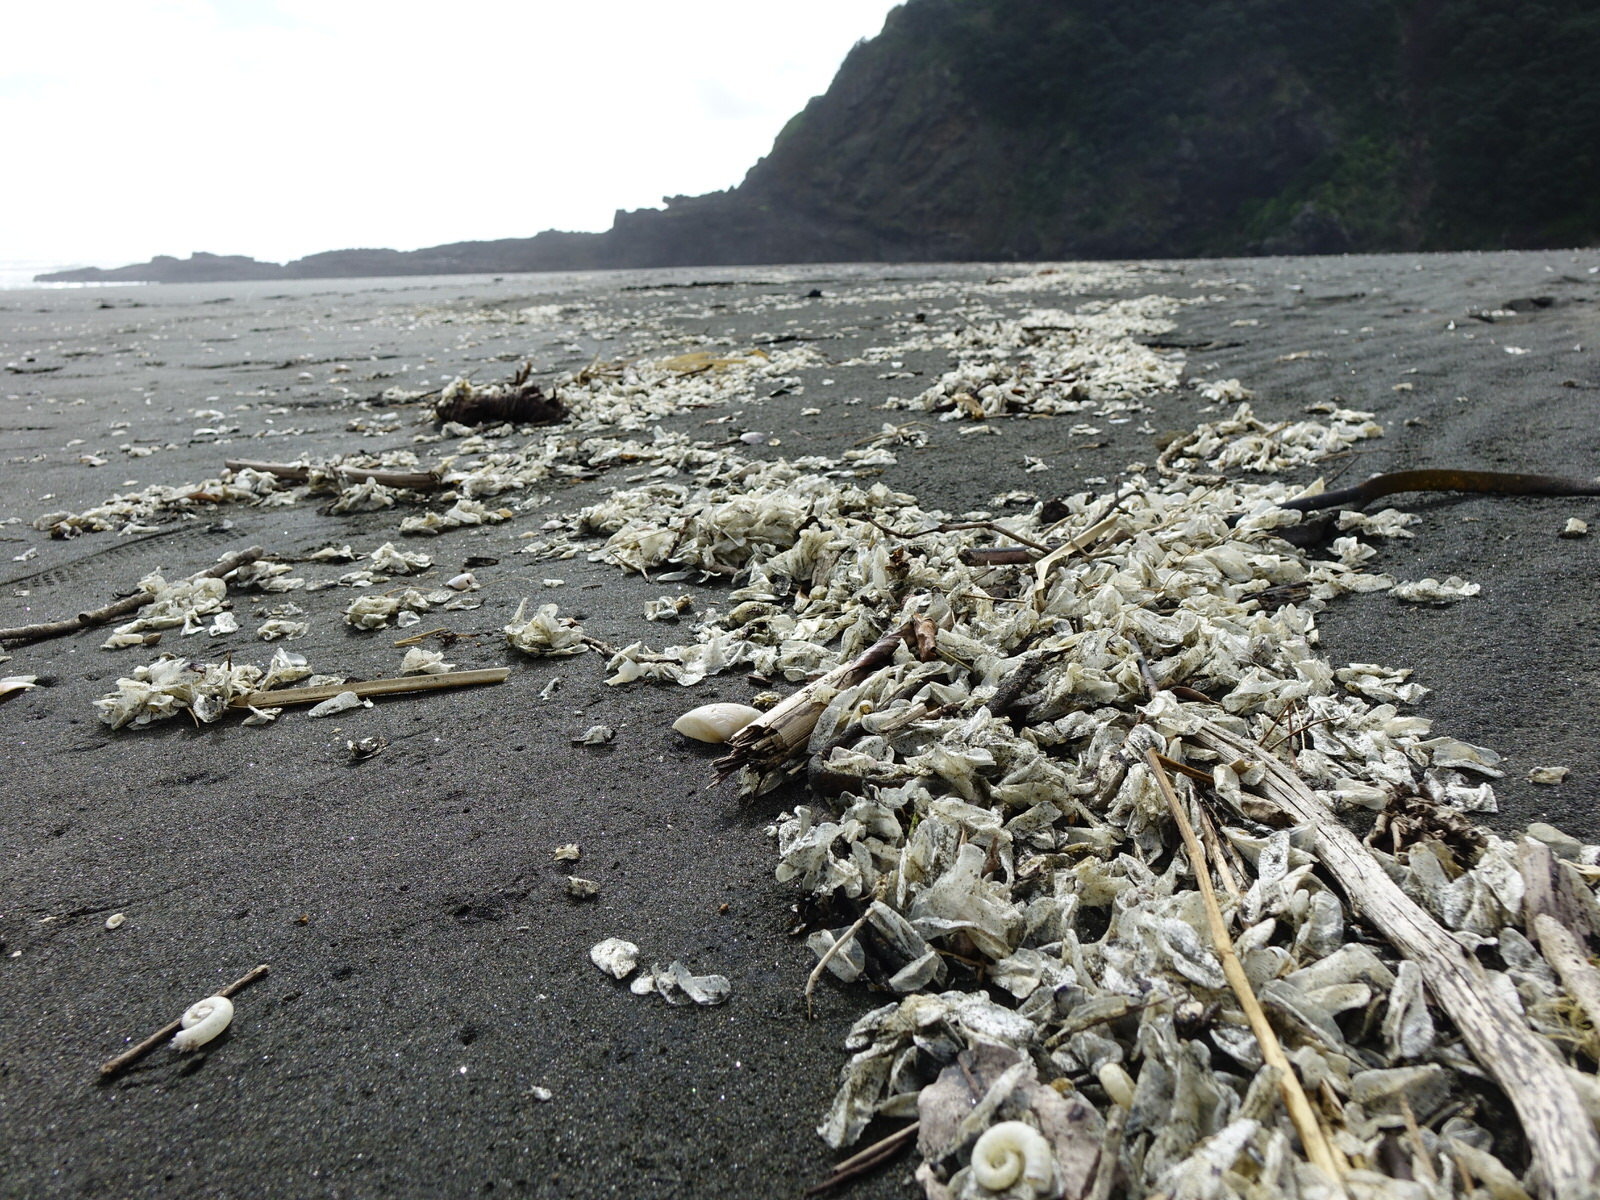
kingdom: Animalia
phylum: Cnidaria
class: Hydrozoa
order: Anthoathecata
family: Porpitidae
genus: Velella
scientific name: Velella velella
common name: By-the-wind-sailor
